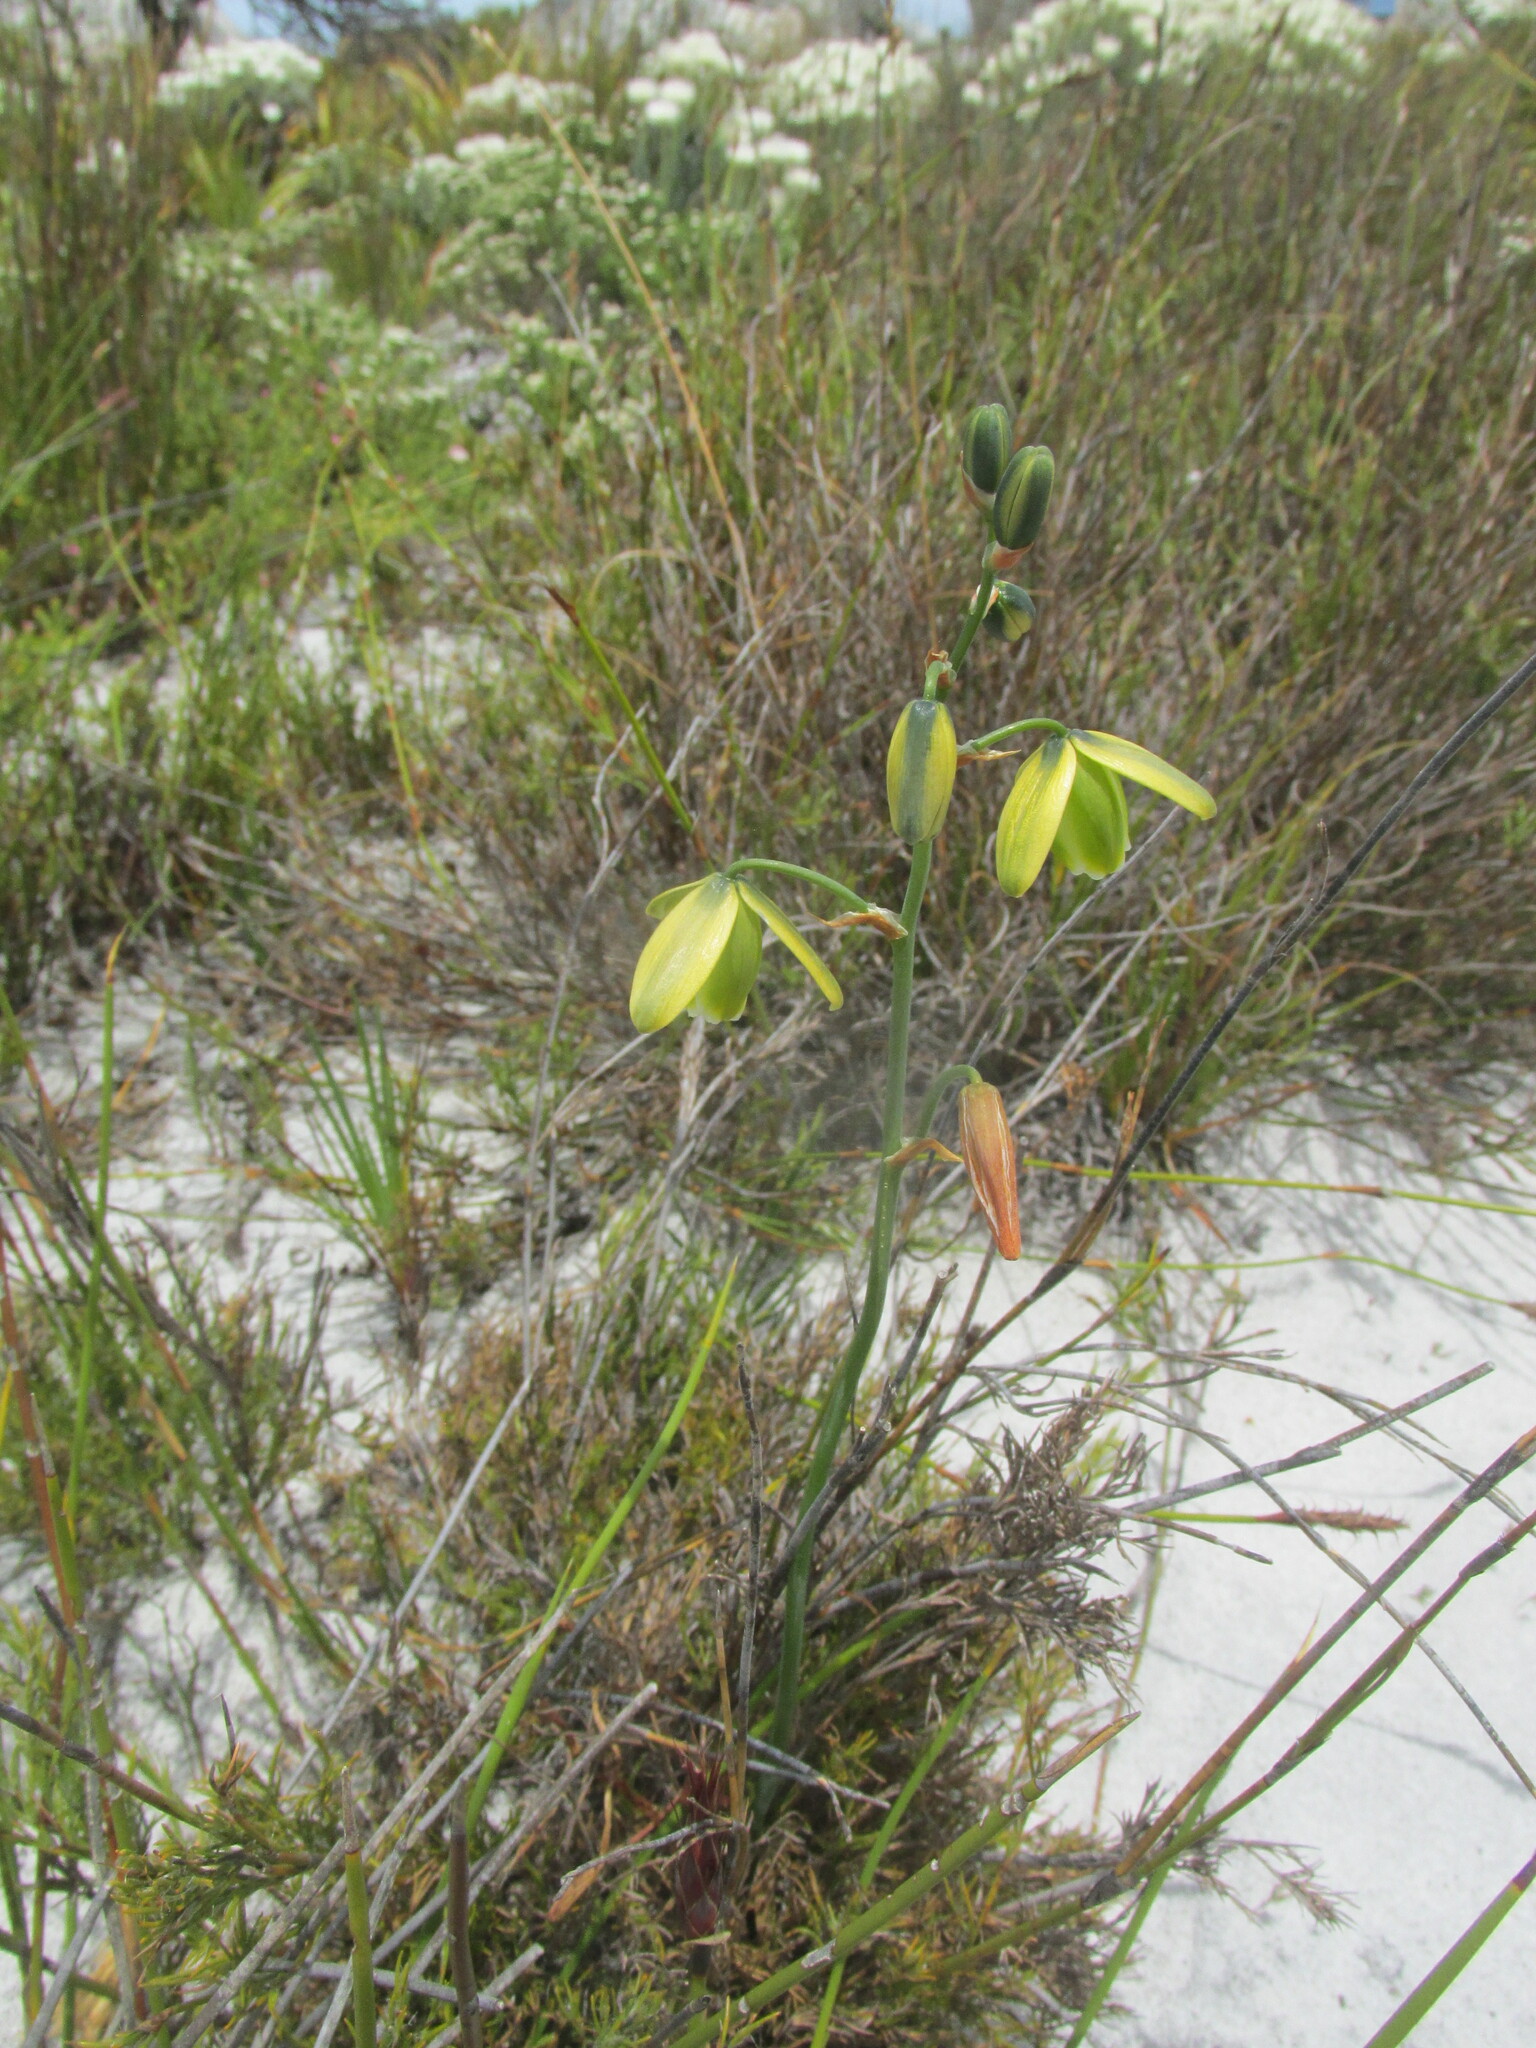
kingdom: Plantae
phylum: Tracheophyta
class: Liliopsida
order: Asparagales
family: Asparagaceae
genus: Albuca
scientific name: Albuca cooperi
